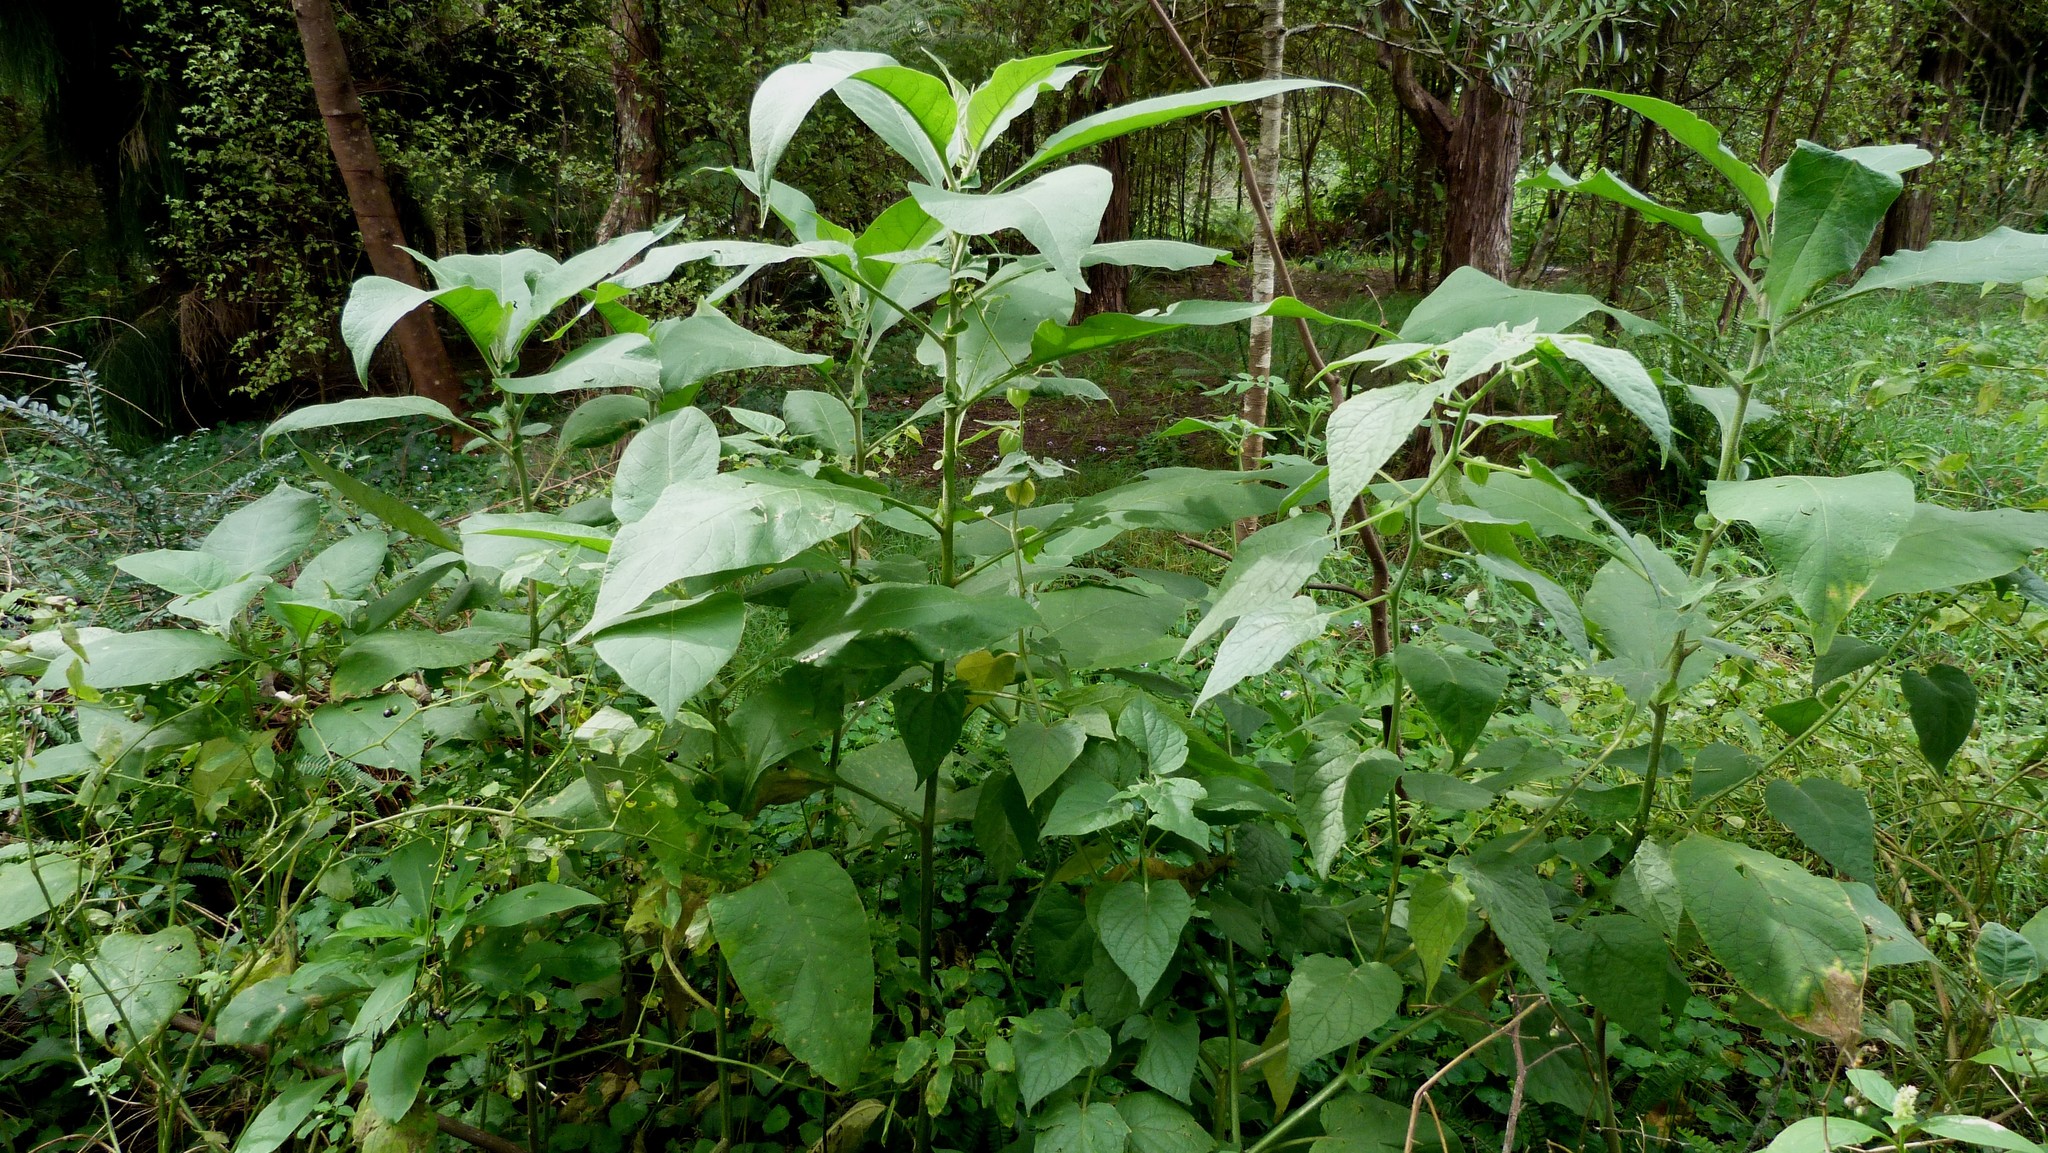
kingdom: Plantae
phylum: Tracheophyta
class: Magnoliopsida
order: Solanales
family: Solanaceae
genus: Solanum
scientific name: Solanum mauritianum
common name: Earleaf nightshade
